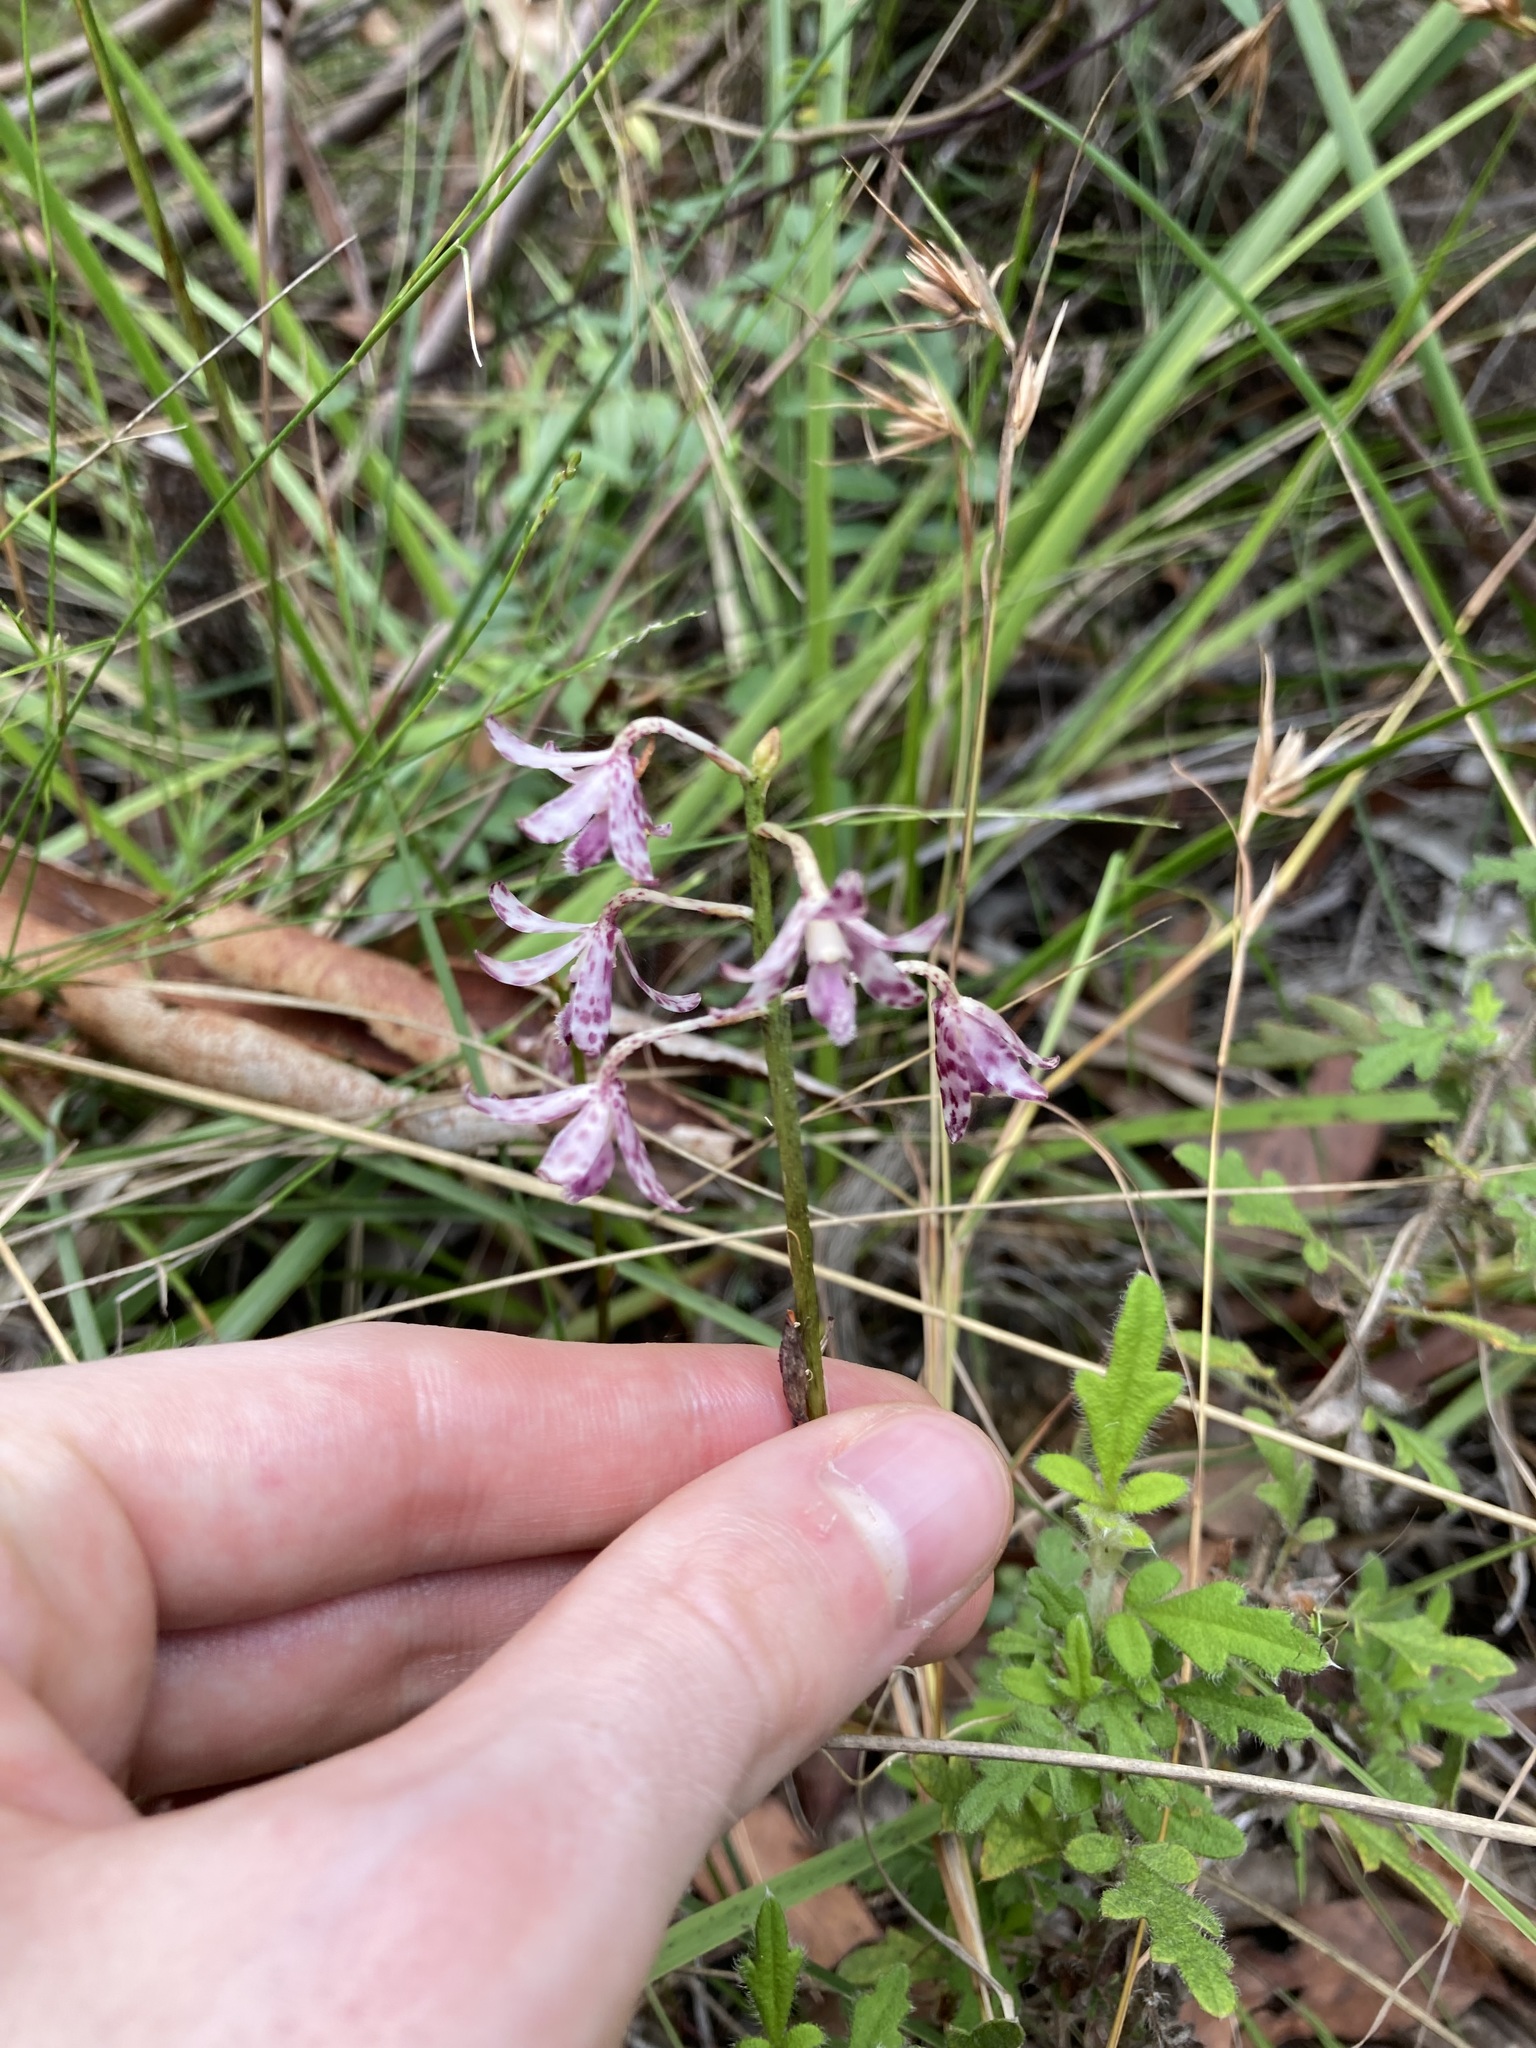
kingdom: Plantae
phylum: Tracheophyta
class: Liliopsida
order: Asparagales
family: Orchidaceae
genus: Dipodium
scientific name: Dipodium variegatum
